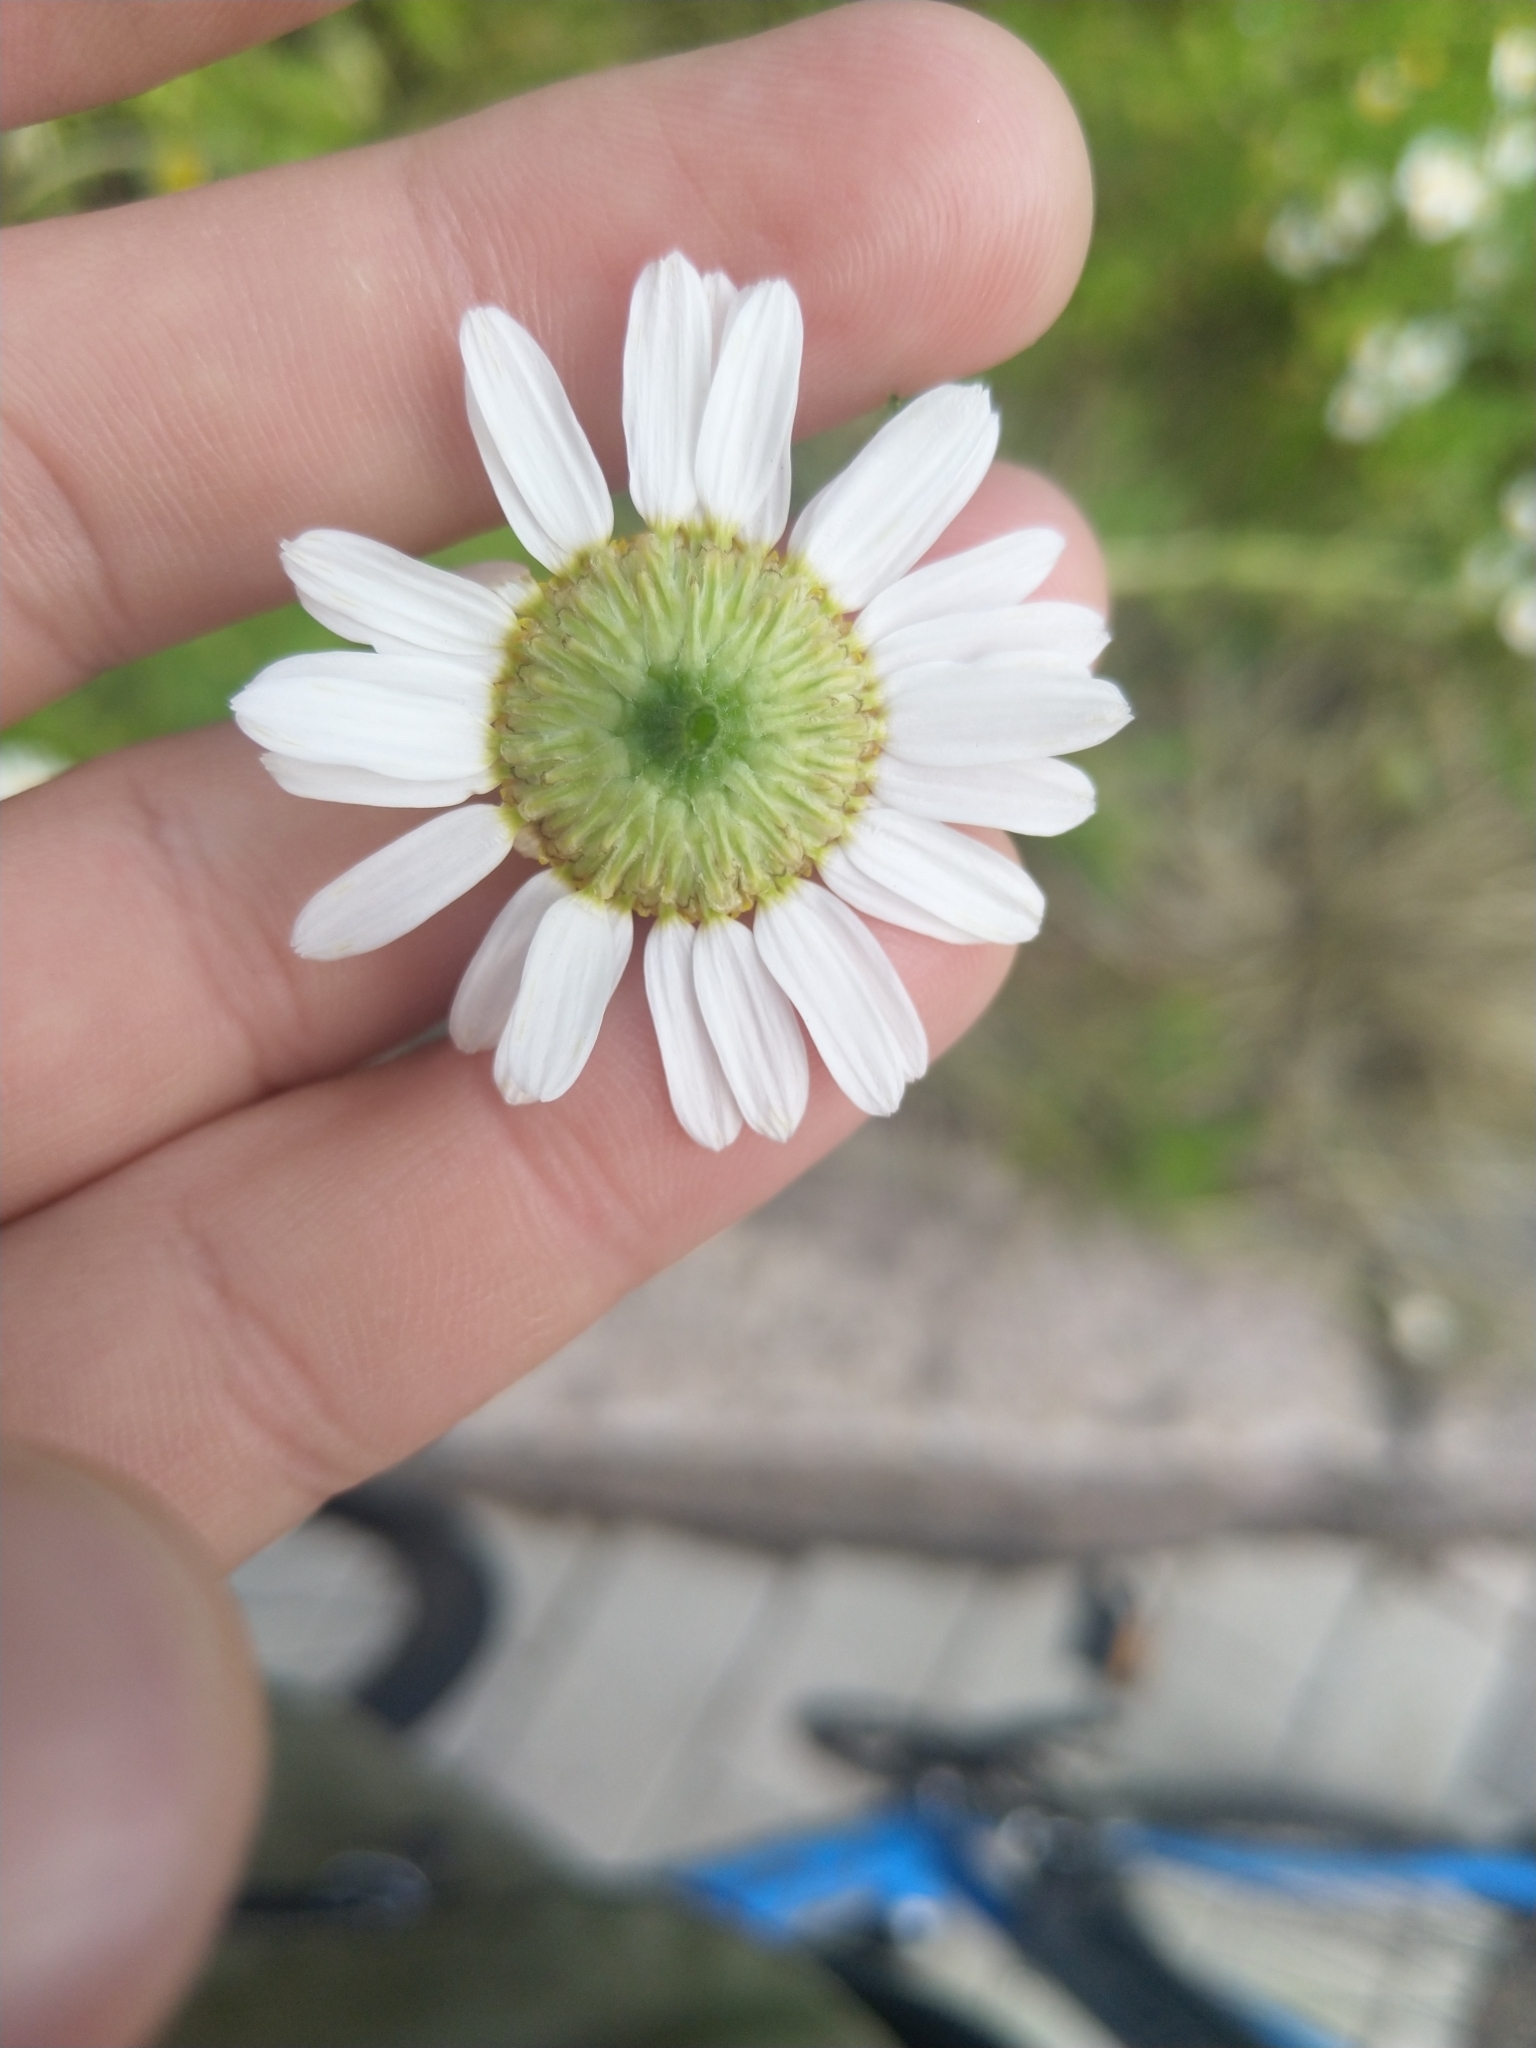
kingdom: Plantae
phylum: Tracheophyta
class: Magnoliopsida
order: Asterales
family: Asteraceae
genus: Tripleurospermum
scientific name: Tripleurospermum inodorum
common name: Scentless mayweed
